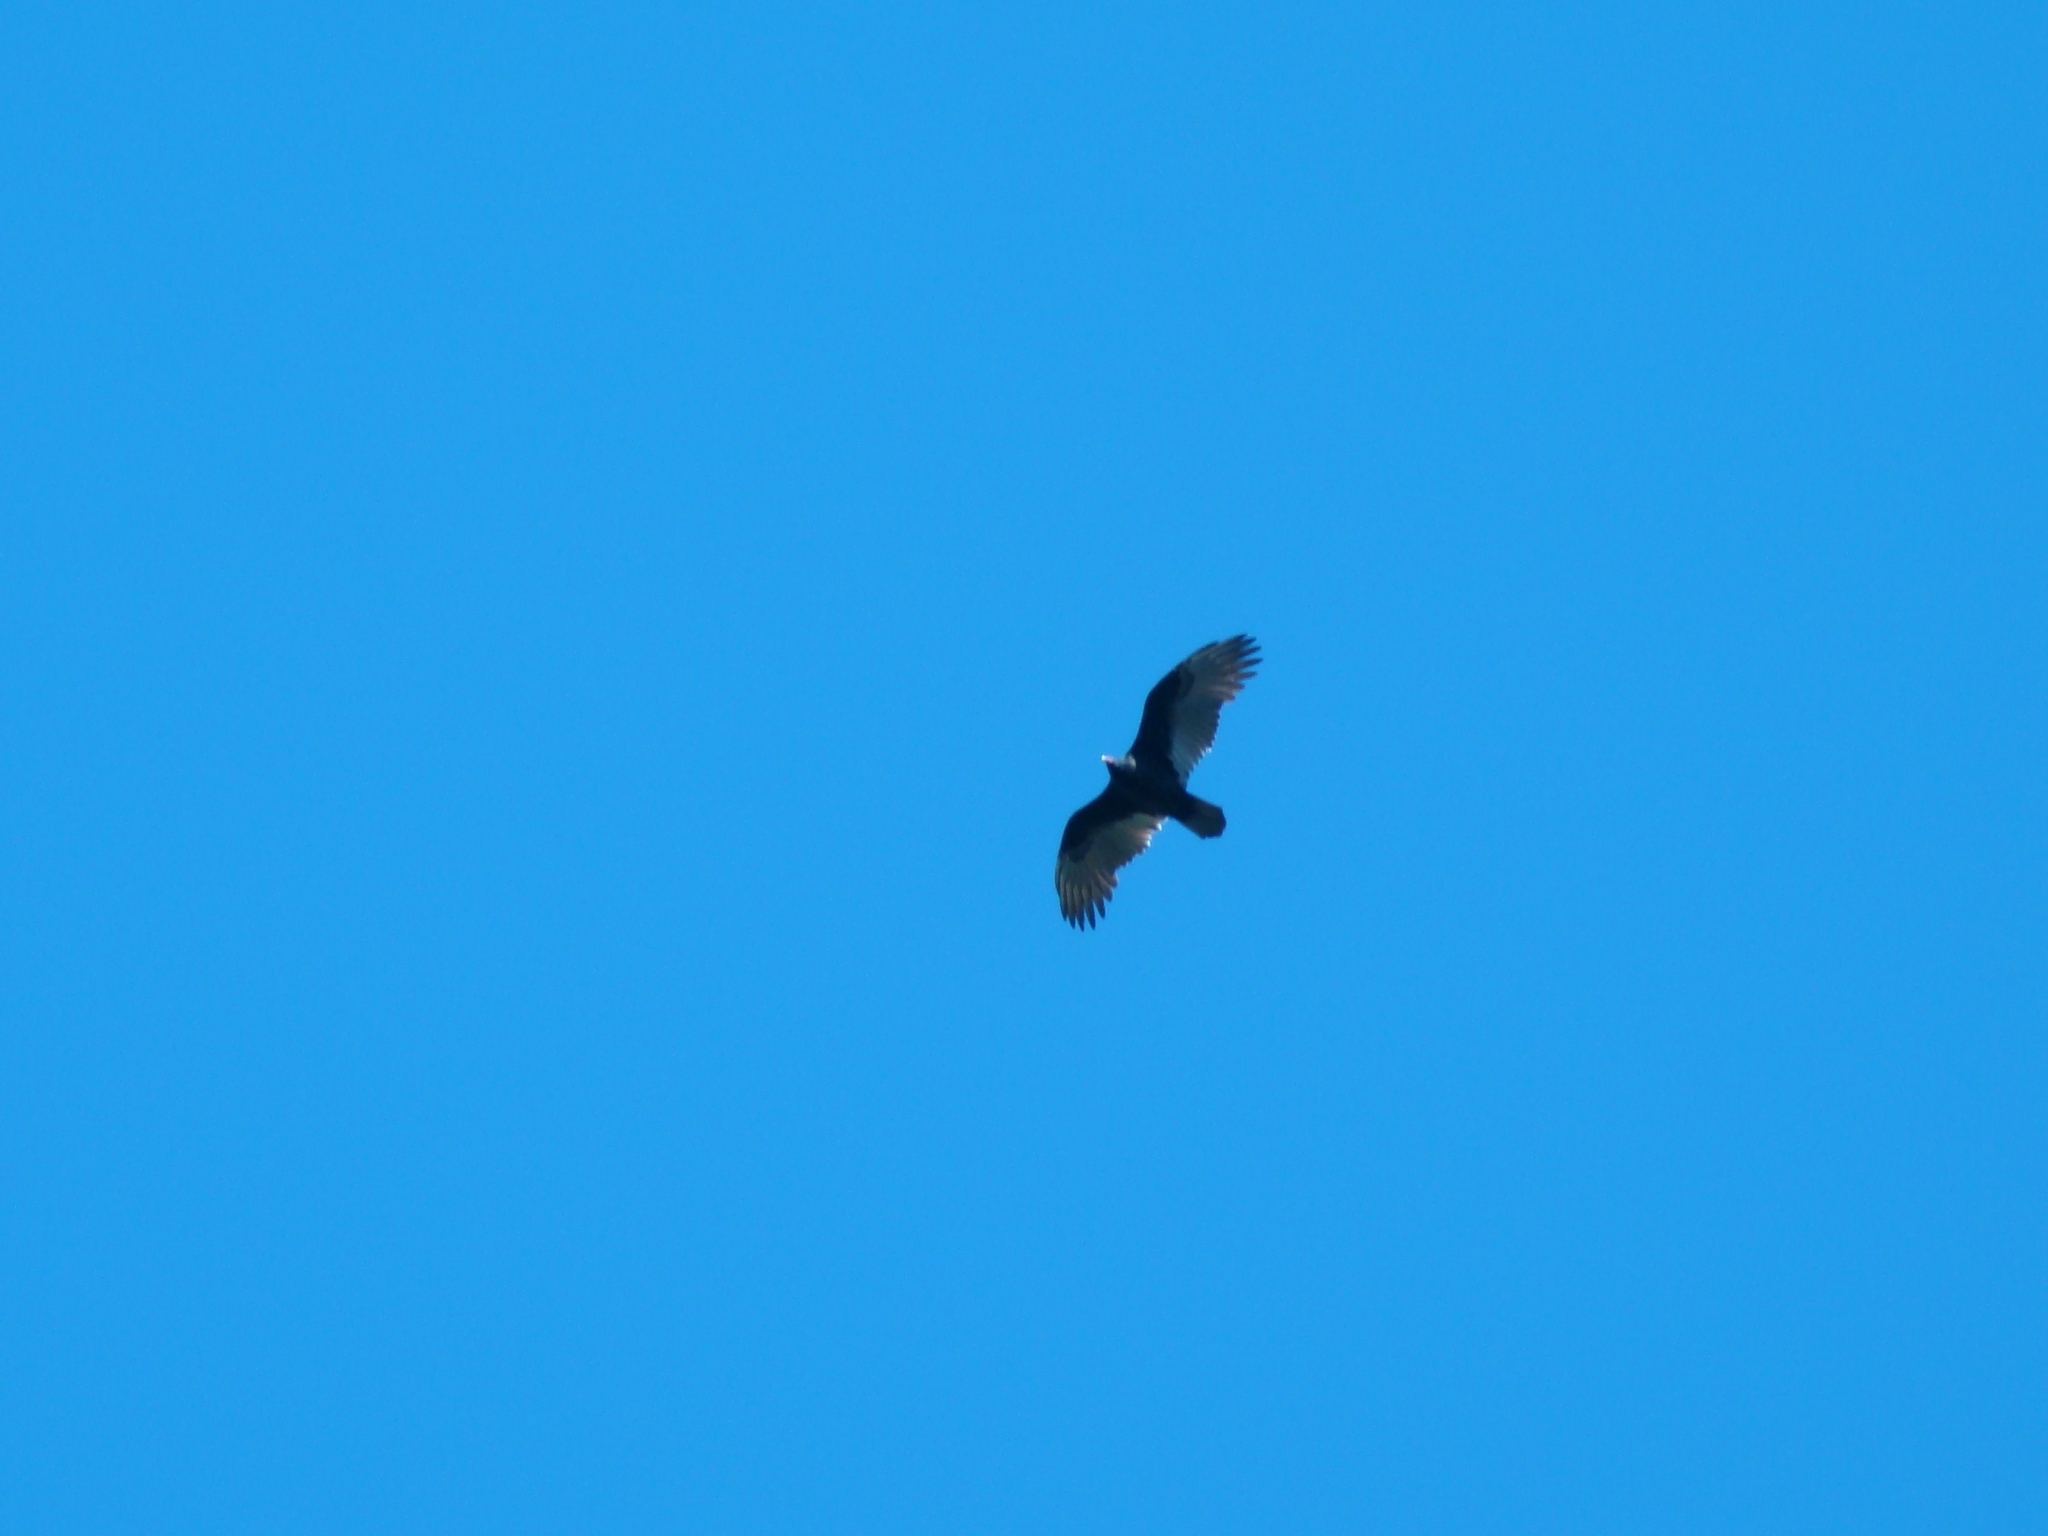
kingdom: Animalia
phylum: Chordata
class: Aves
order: Accipitriformes
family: Cathartidae
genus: Cathartes
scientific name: Cathartes aura
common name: Turkey vulture
